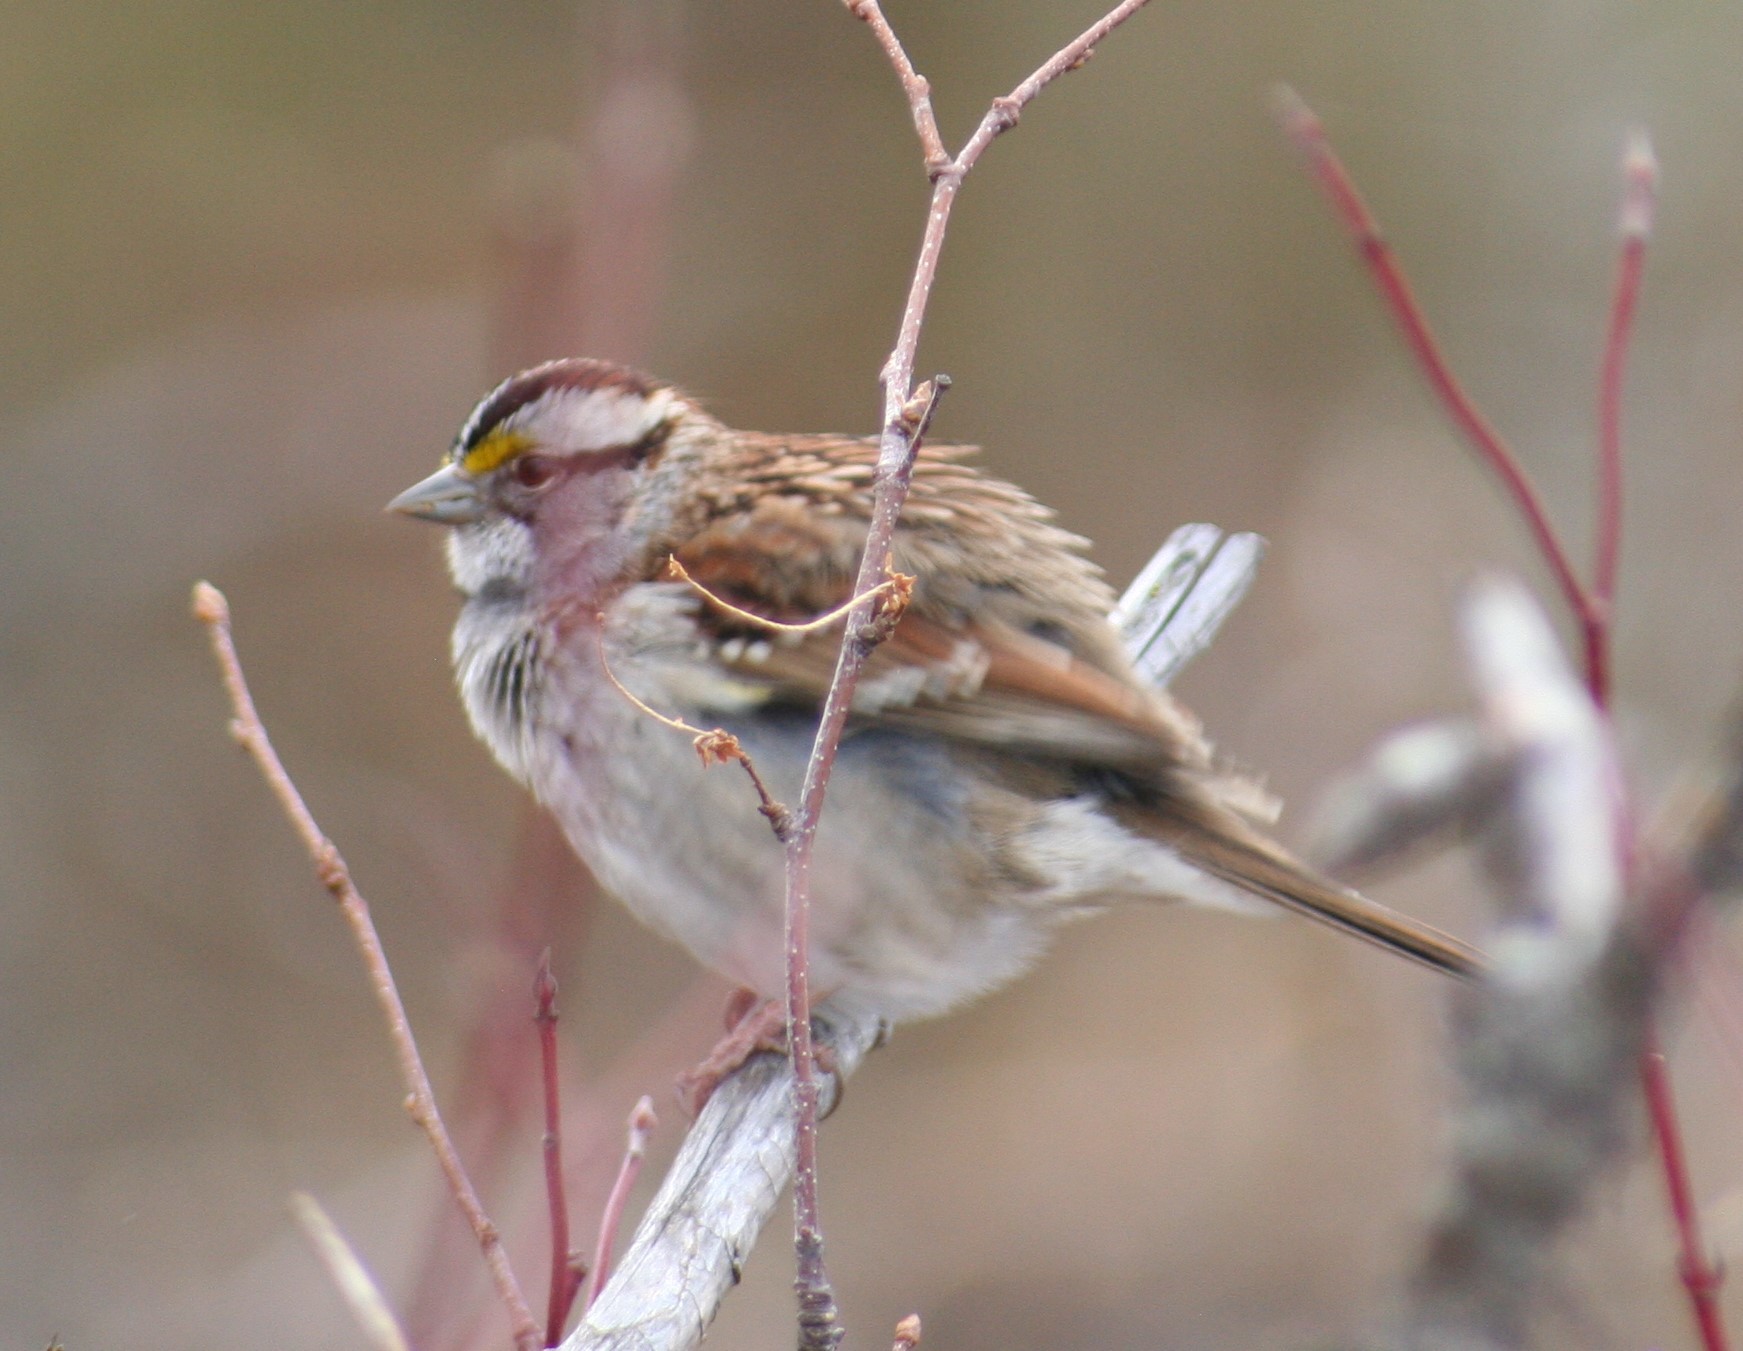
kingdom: Animalia
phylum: Chordata
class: Aves
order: Passeriformes
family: Passerellidae
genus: Zonotrichia
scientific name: Zonotrichia albicollis
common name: White-throated sparrow
